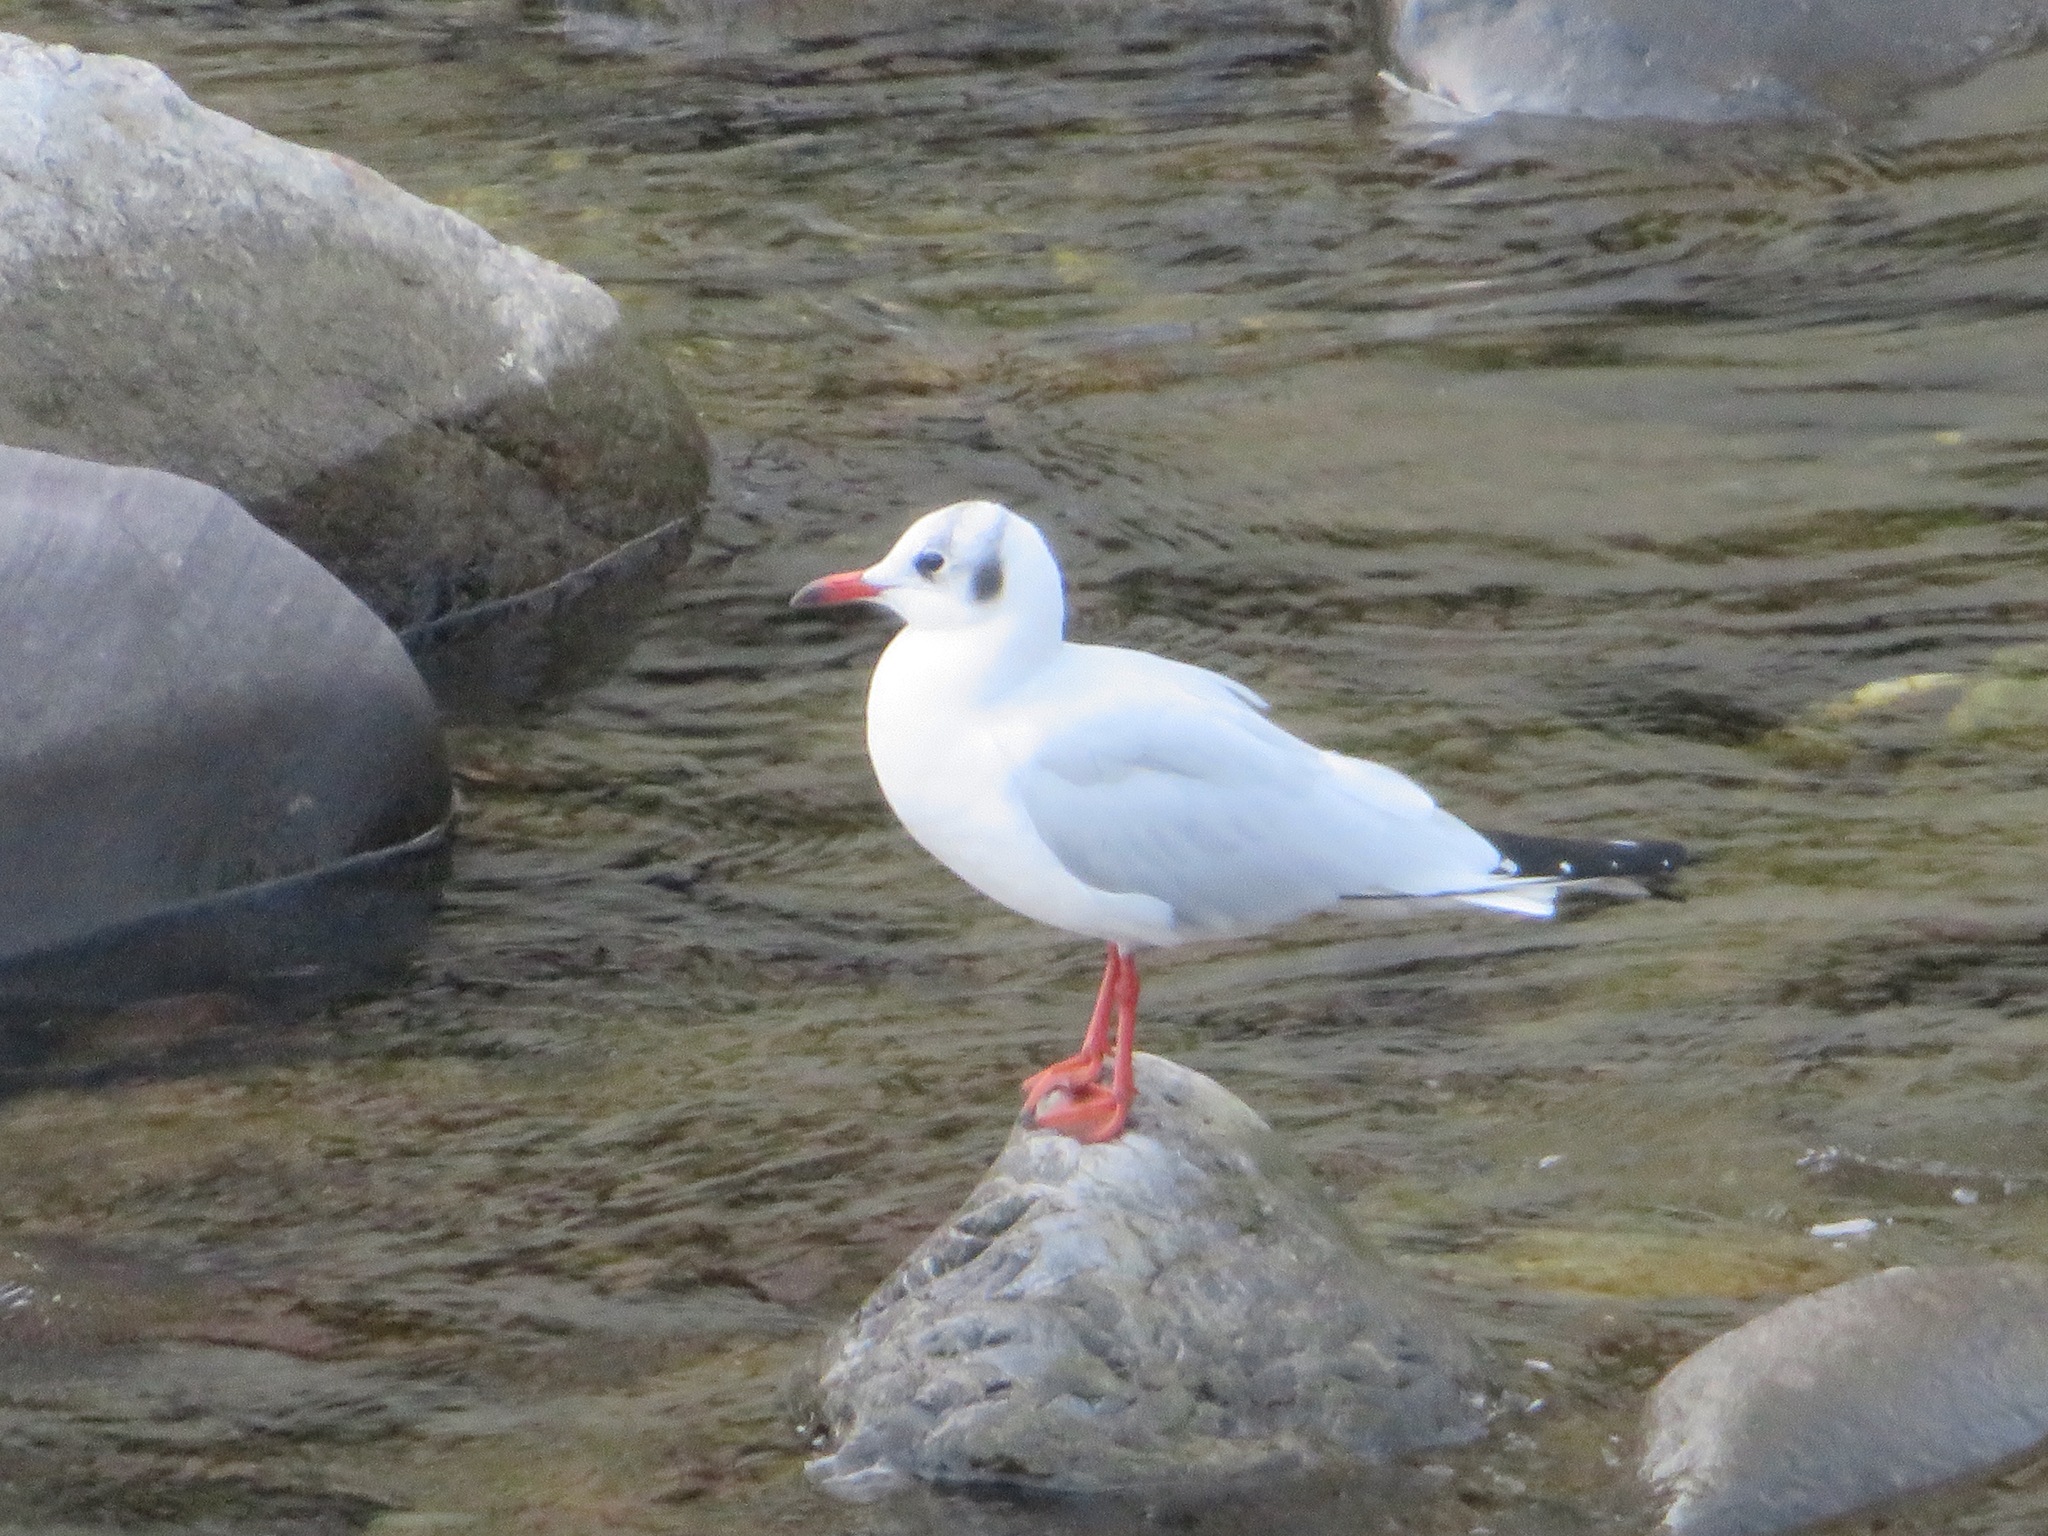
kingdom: Animalia
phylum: Chordata
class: Aves
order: Charadriiformes
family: Laridae
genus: Chroicocephalus
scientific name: Chroicocephalus ridibundus
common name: Black-headed gull
